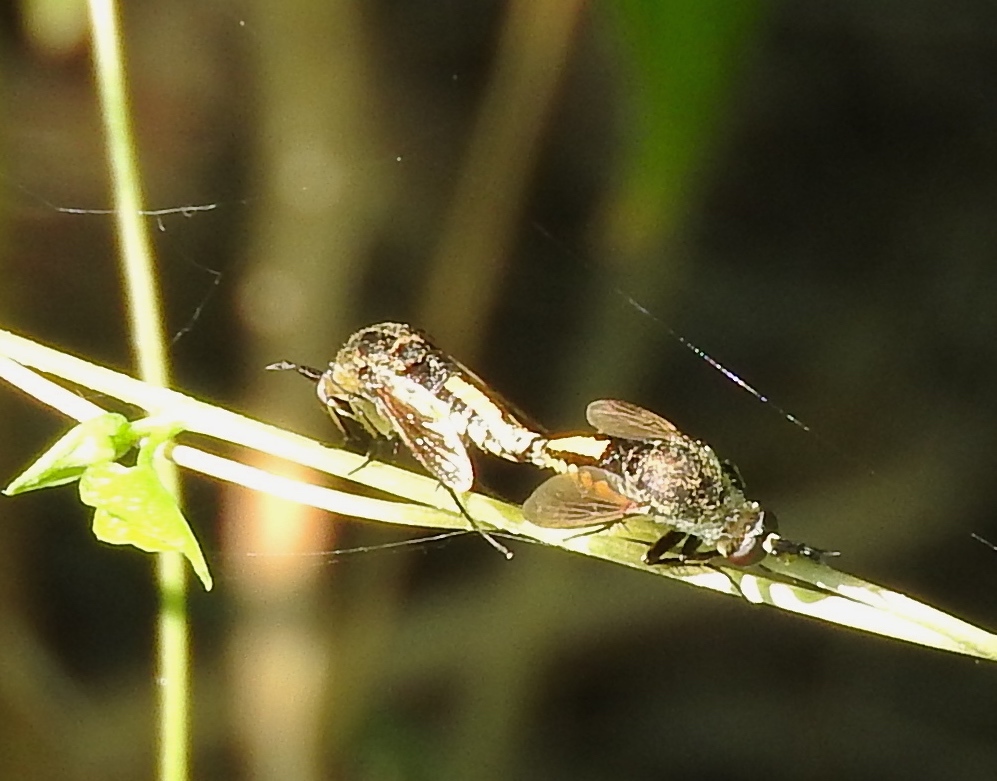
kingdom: Animalia
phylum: Arthropoda
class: Insecta
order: Diptera
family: Bombyliidae
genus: Toxophora
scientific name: Toxophora virgata
